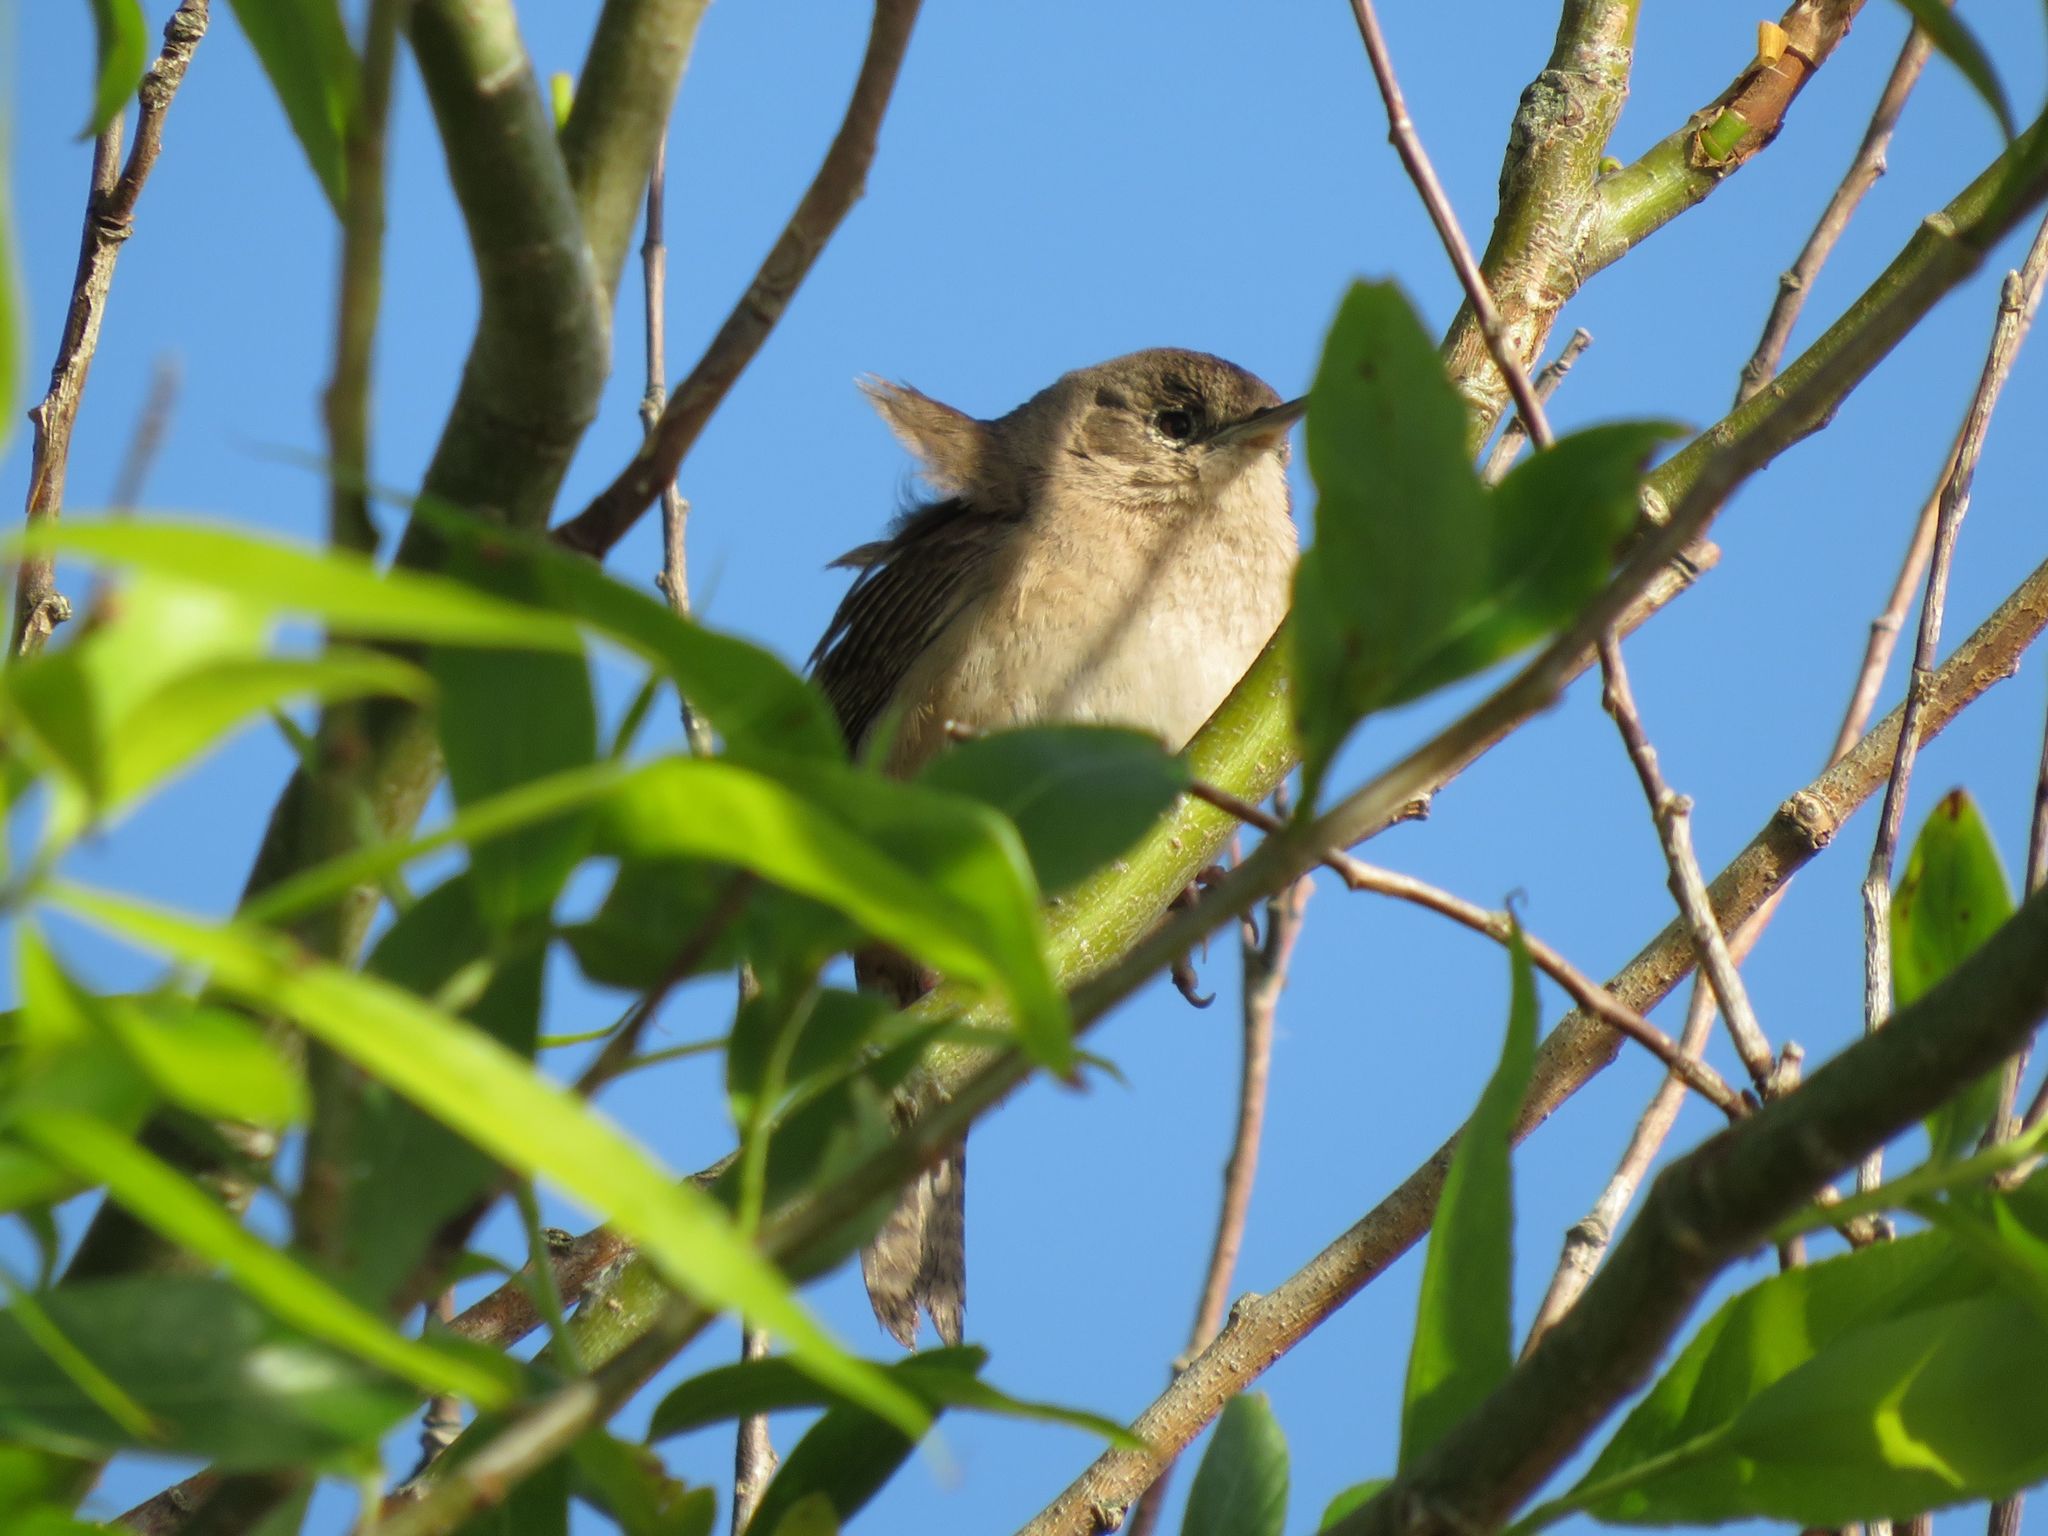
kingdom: Animalia
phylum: Chordata
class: Aves
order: Passeriformes
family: Troglodytidae
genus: Troglodytes
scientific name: Troglodytes aedon
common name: House wren
